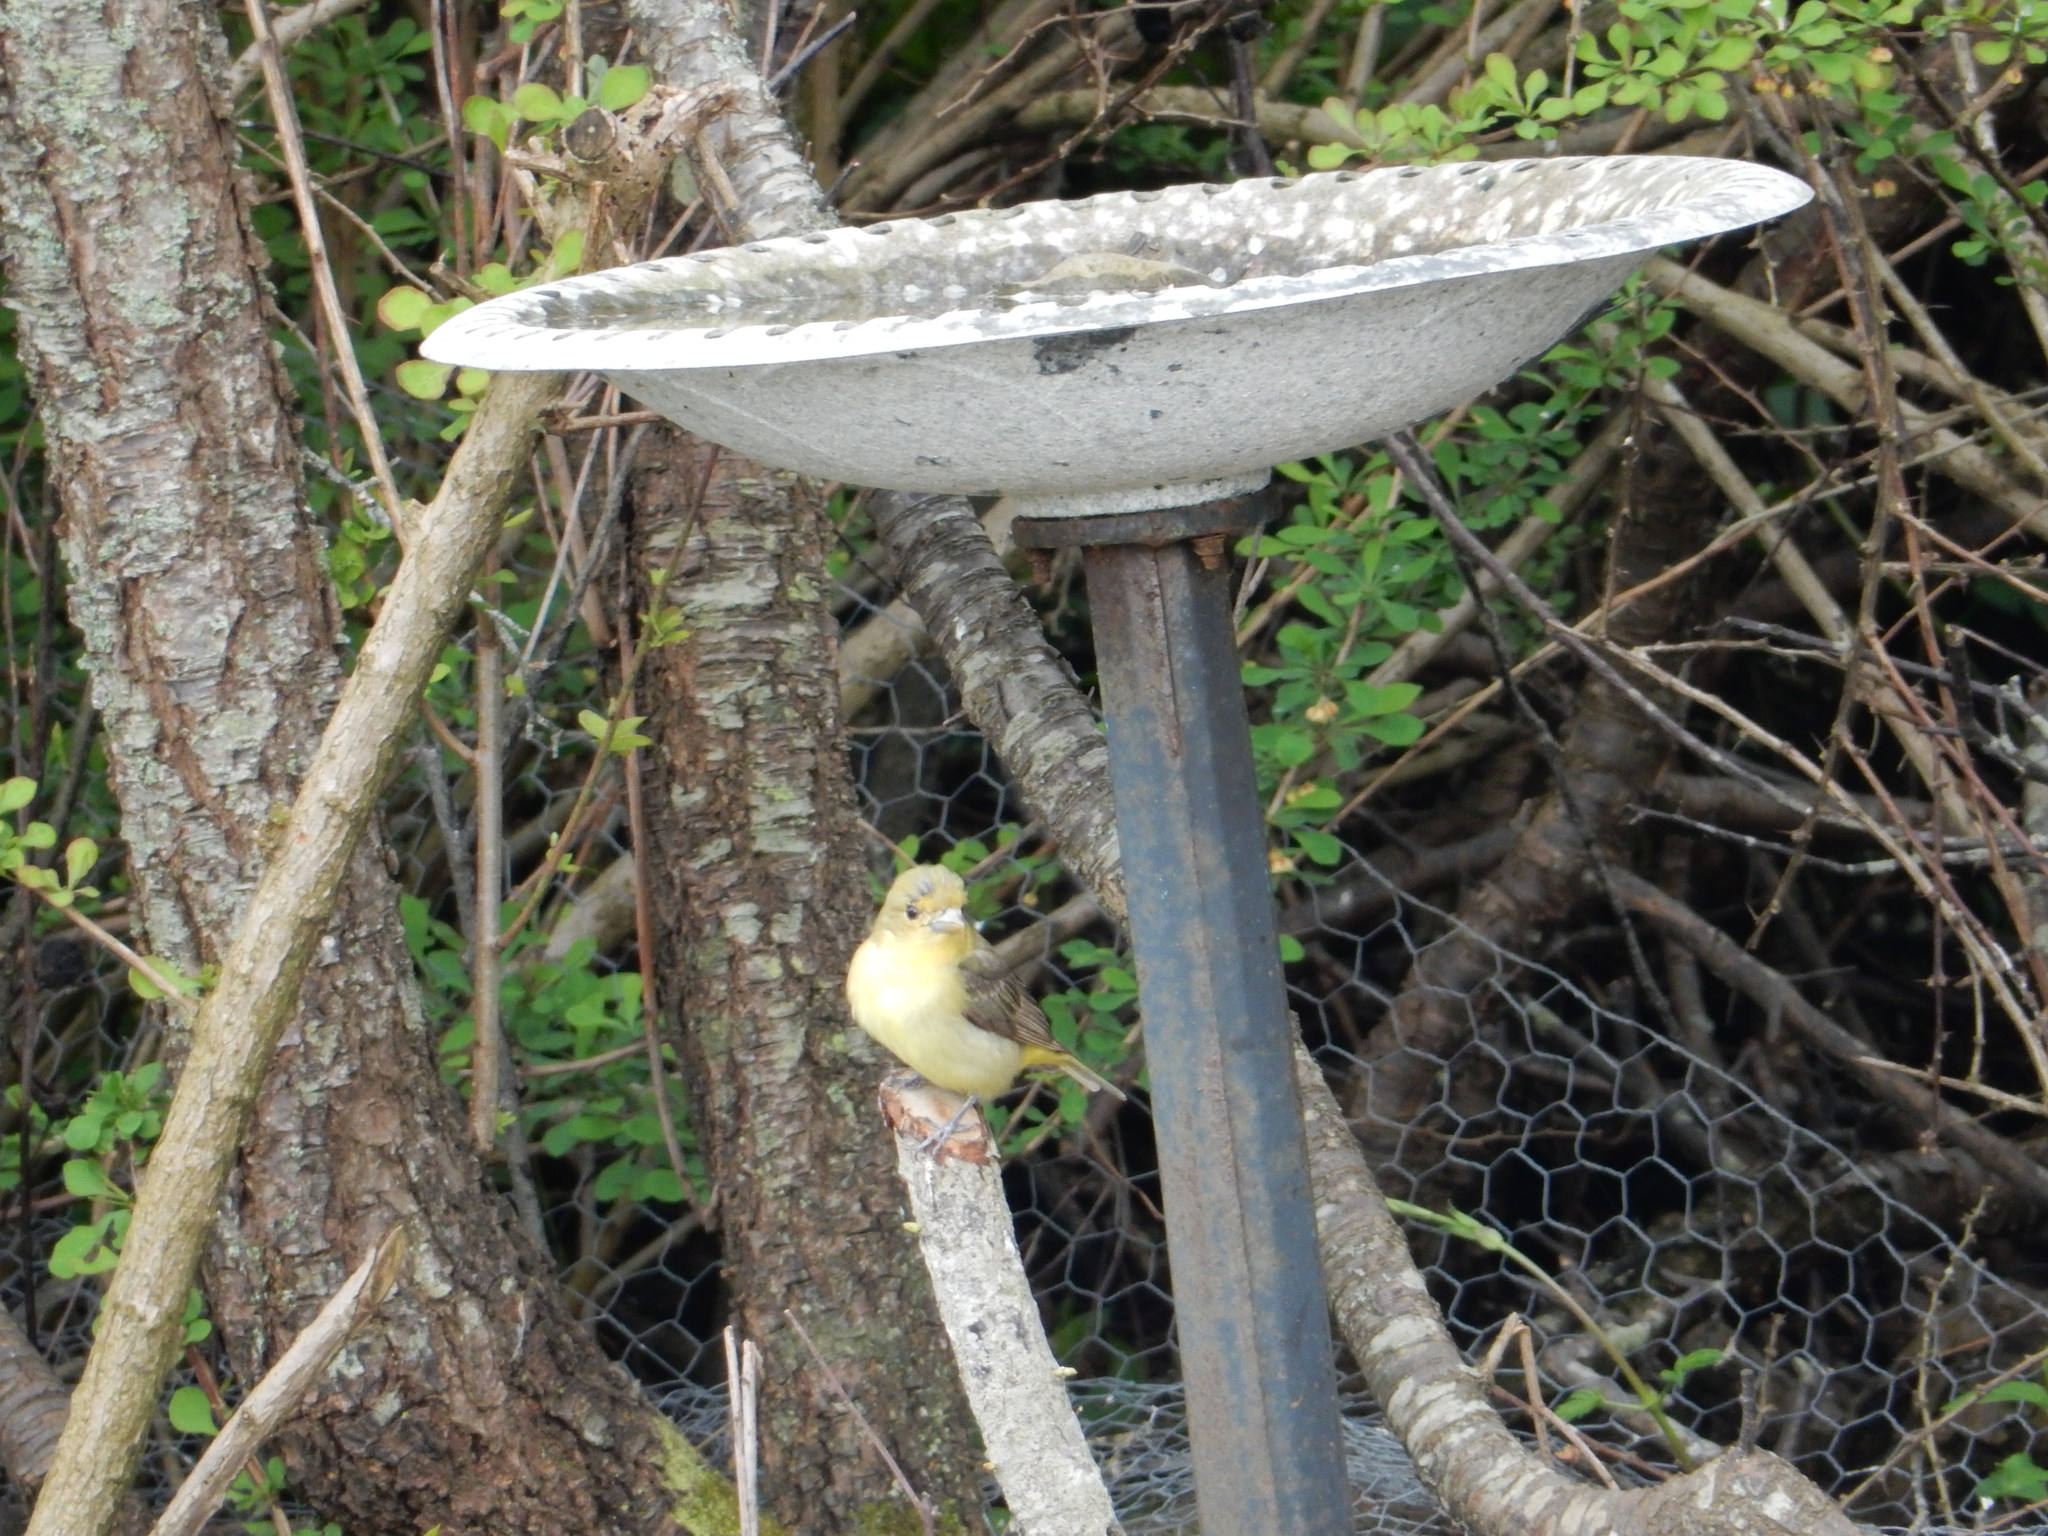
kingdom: Animalia
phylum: Chordata
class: Aves
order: Passeriformes
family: Cardinalidae
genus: Piranga
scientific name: Piranga olivacea
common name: Scarlet tanager
